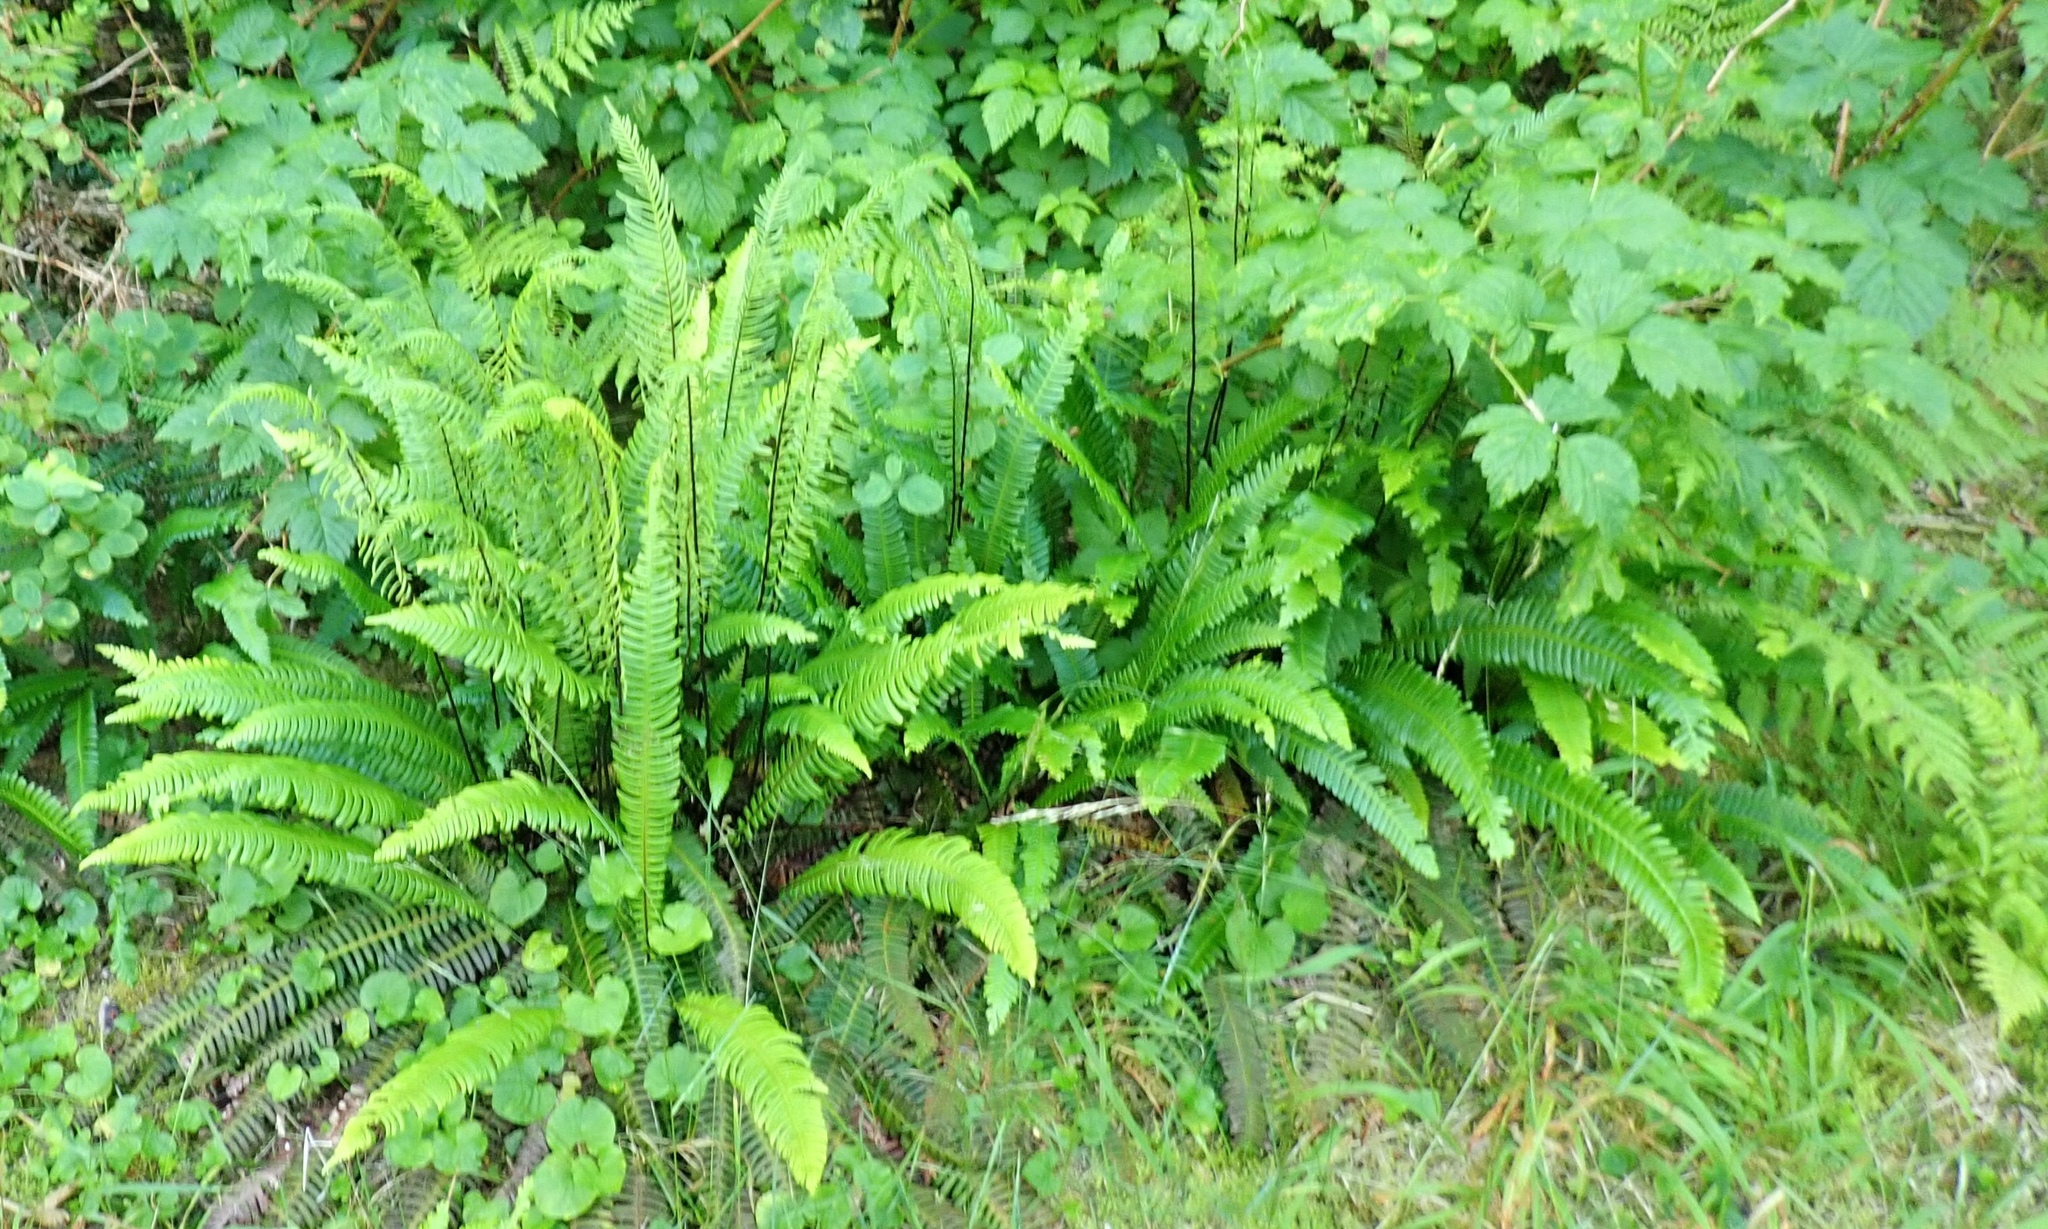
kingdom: Plantae
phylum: Tracheophyta
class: Polypodiopsida
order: Polypodiales
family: Blechnaceae
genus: Struthiopteris
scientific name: Struthiopteris spicant
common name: Deer fern
